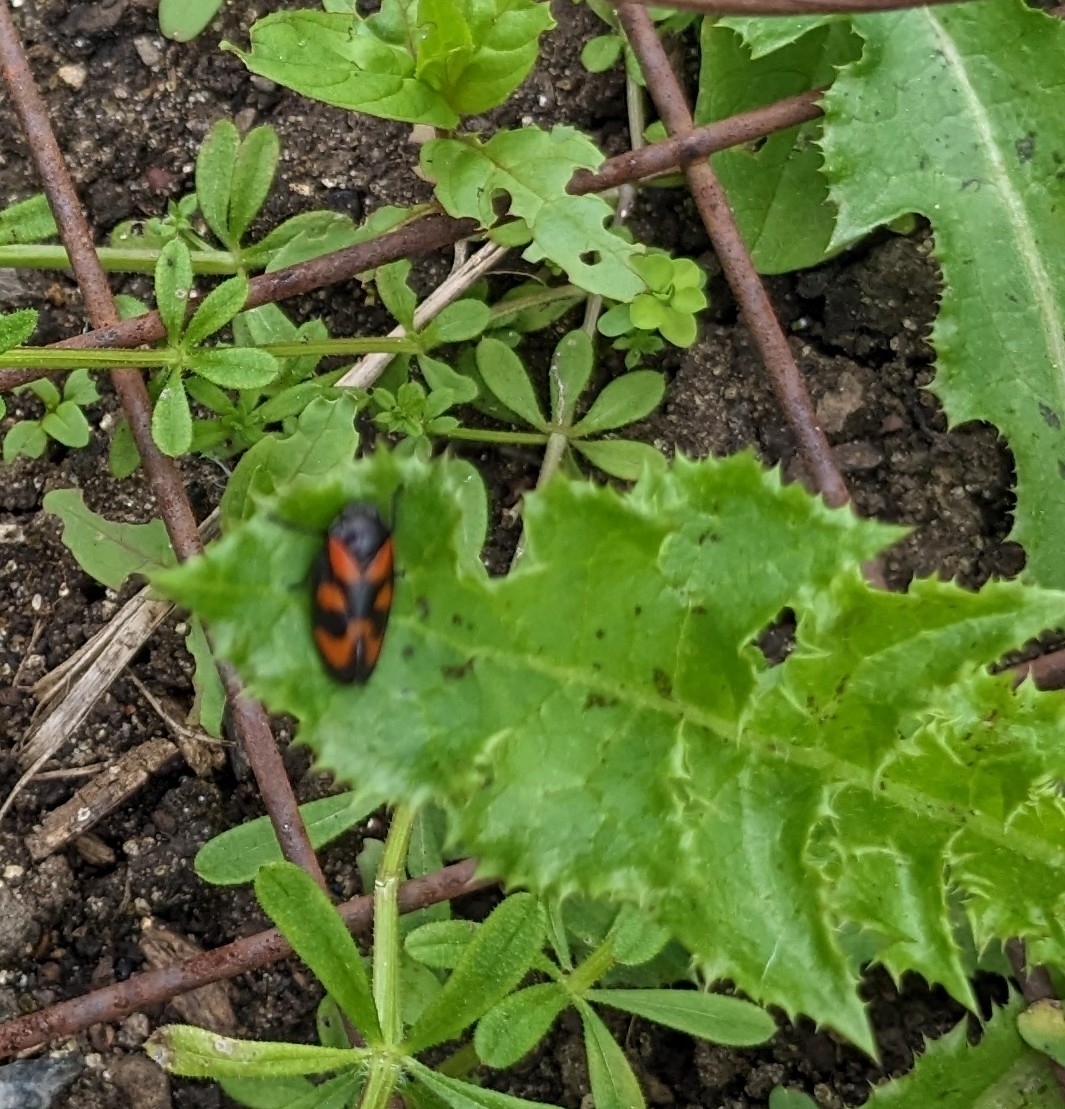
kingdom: Animalia
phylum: Arthropoda
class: Insecta
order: Hemiptera
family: Cercopidae
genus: Cercopis
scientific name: Cercopis vulnerata
